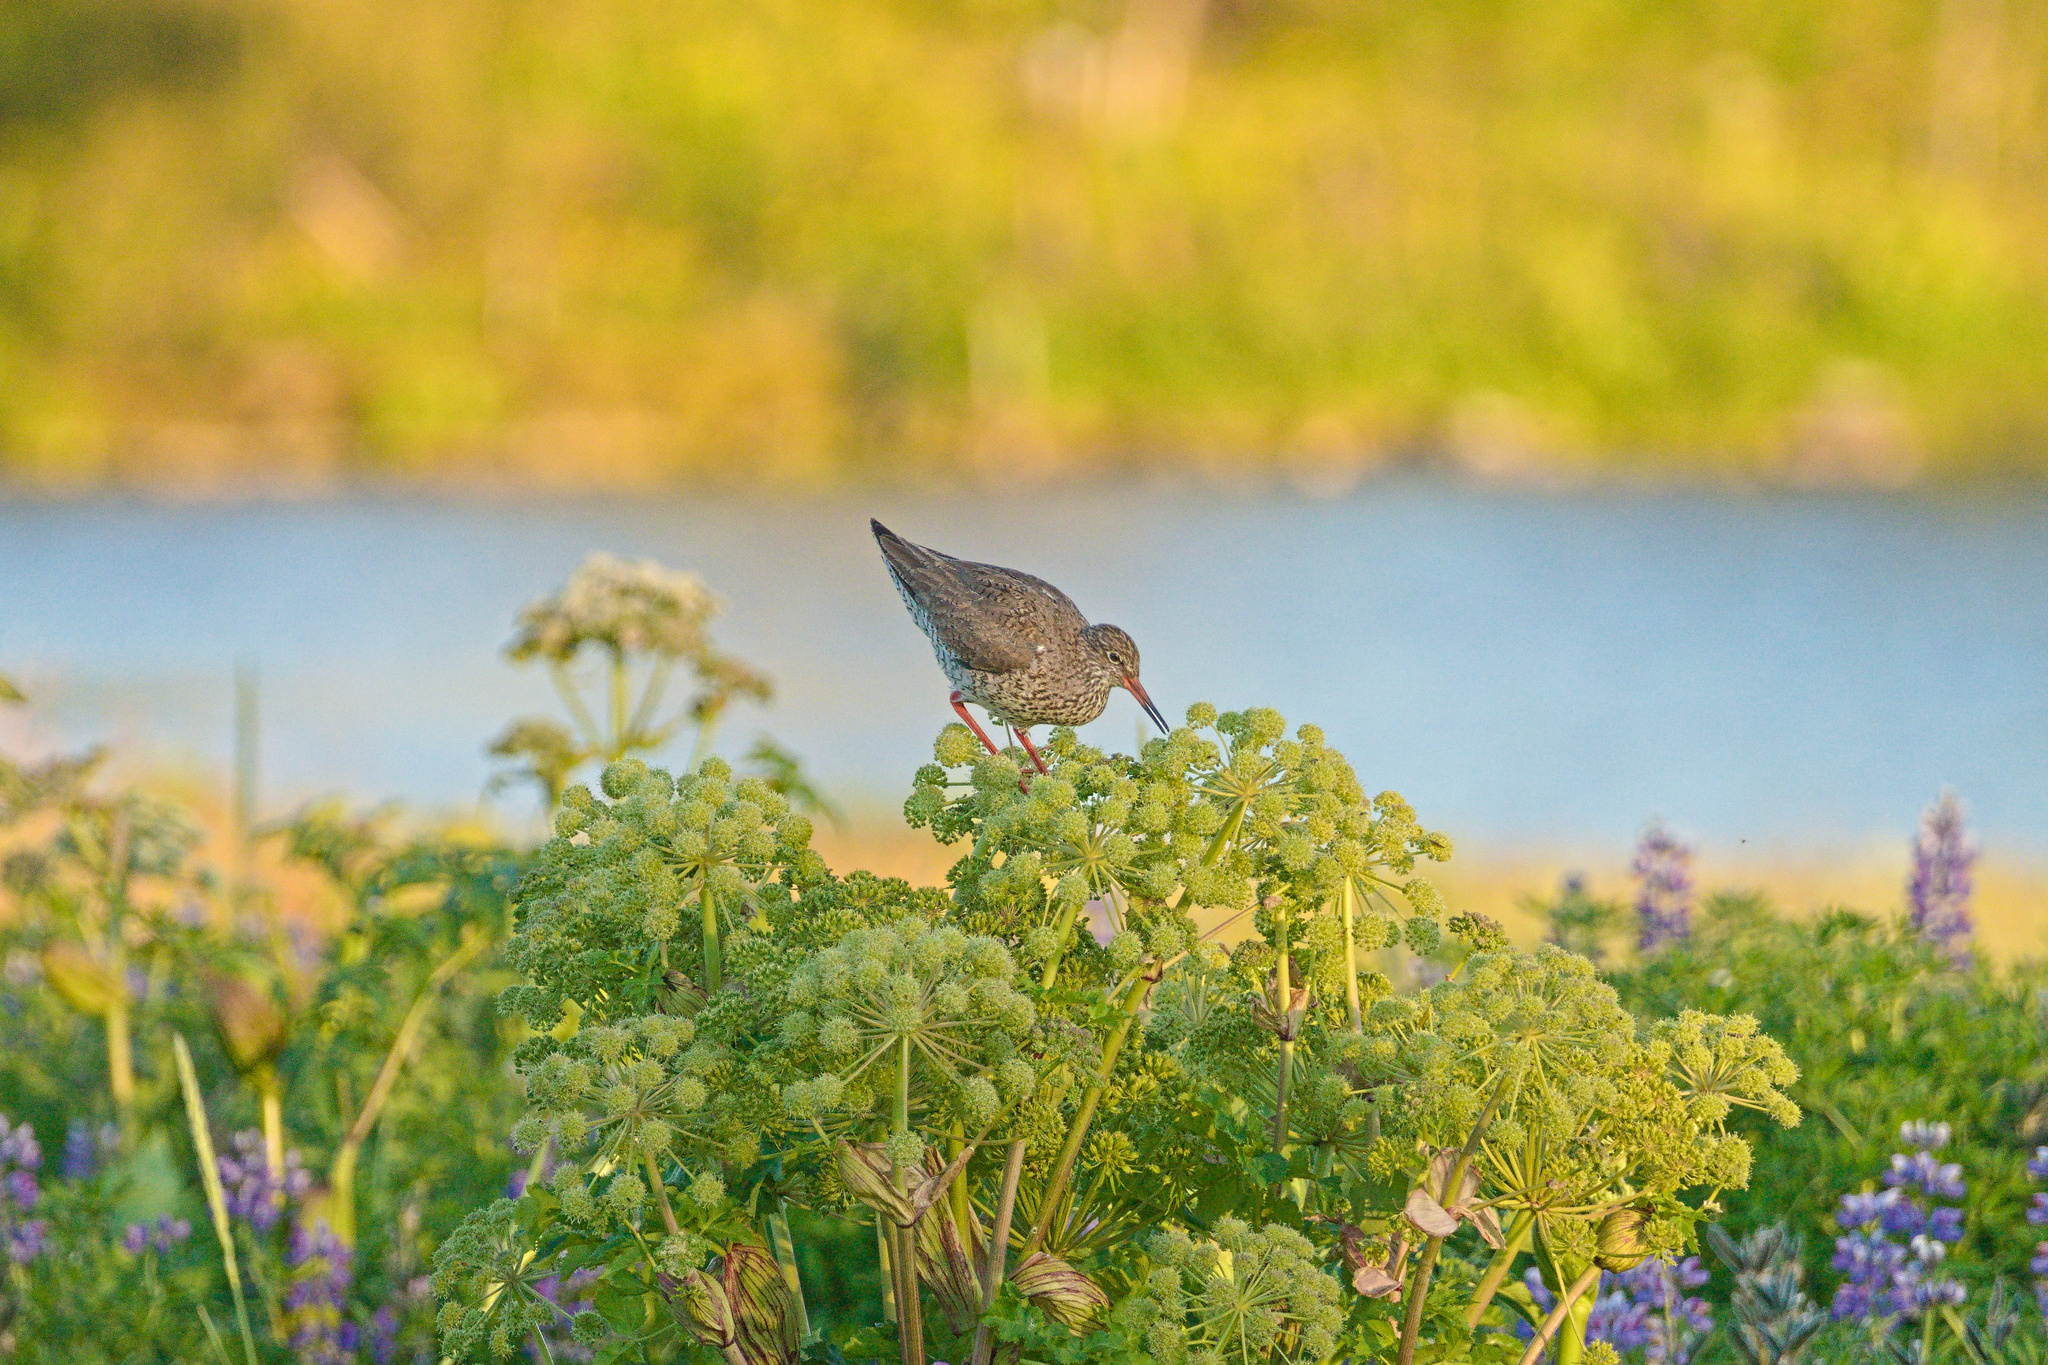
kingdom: Animalia
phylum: Chordata
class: Aves
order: Charadriiformes
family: Scolopacidae
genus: Tringa
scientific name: Tringa totanus
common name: Common redshank
